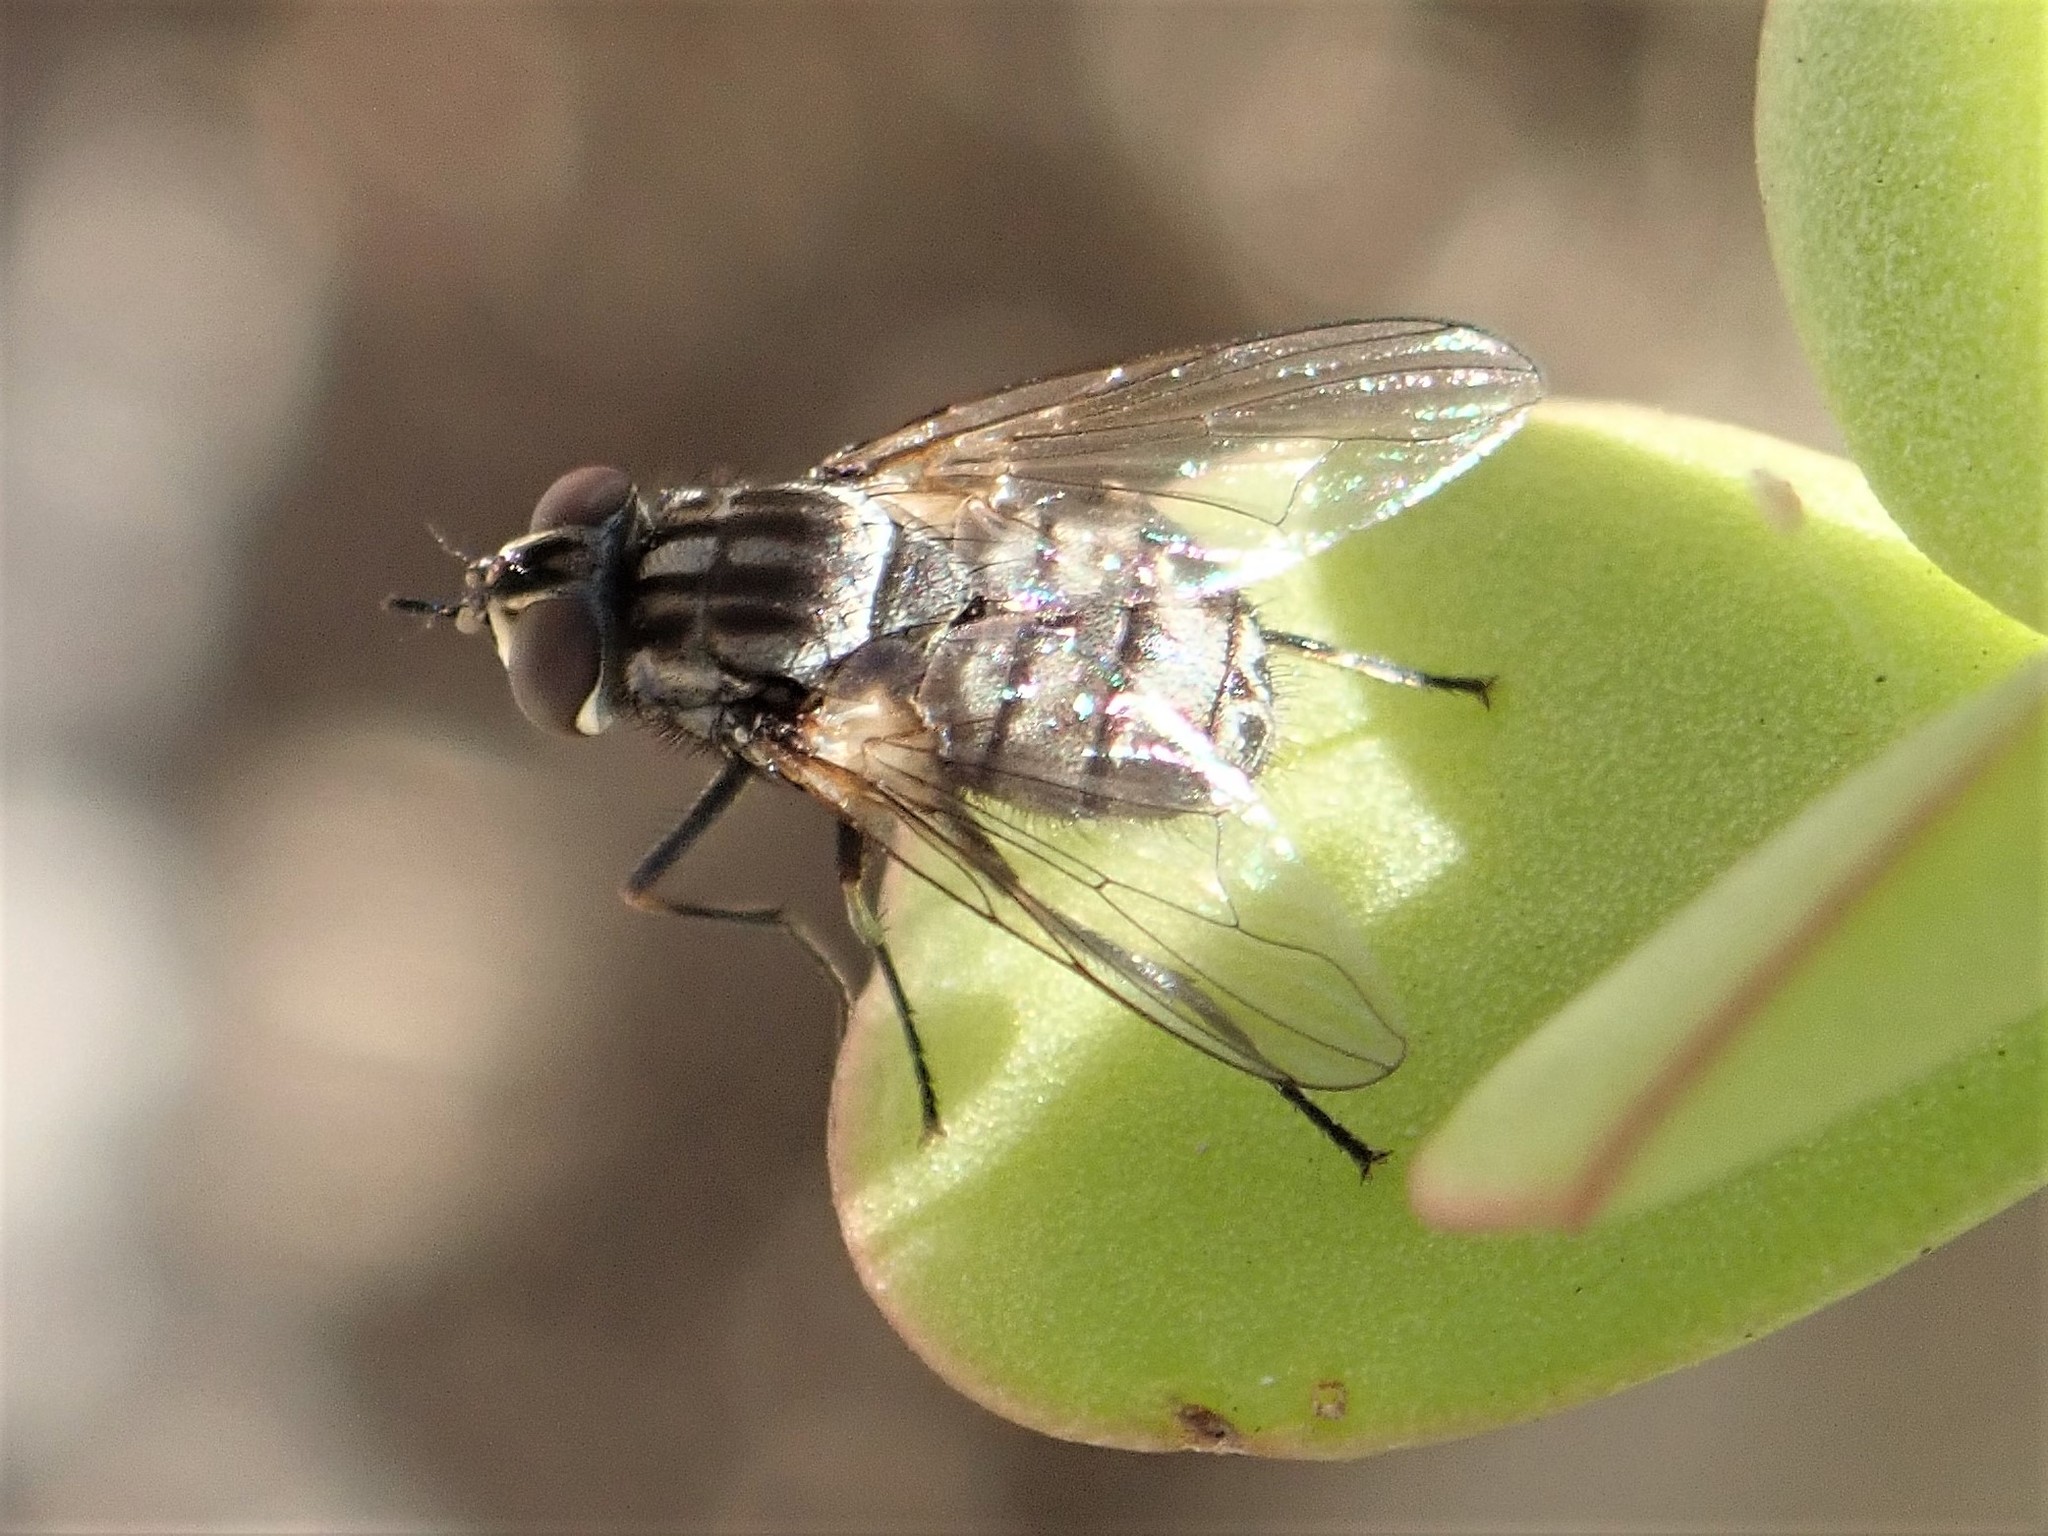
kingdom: Animalia
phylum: Arthropoda
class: Insecta
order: Diptera
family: Muscidae
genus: Stomoxys
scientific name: Stomoxys calcitrans
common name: Stable fly
